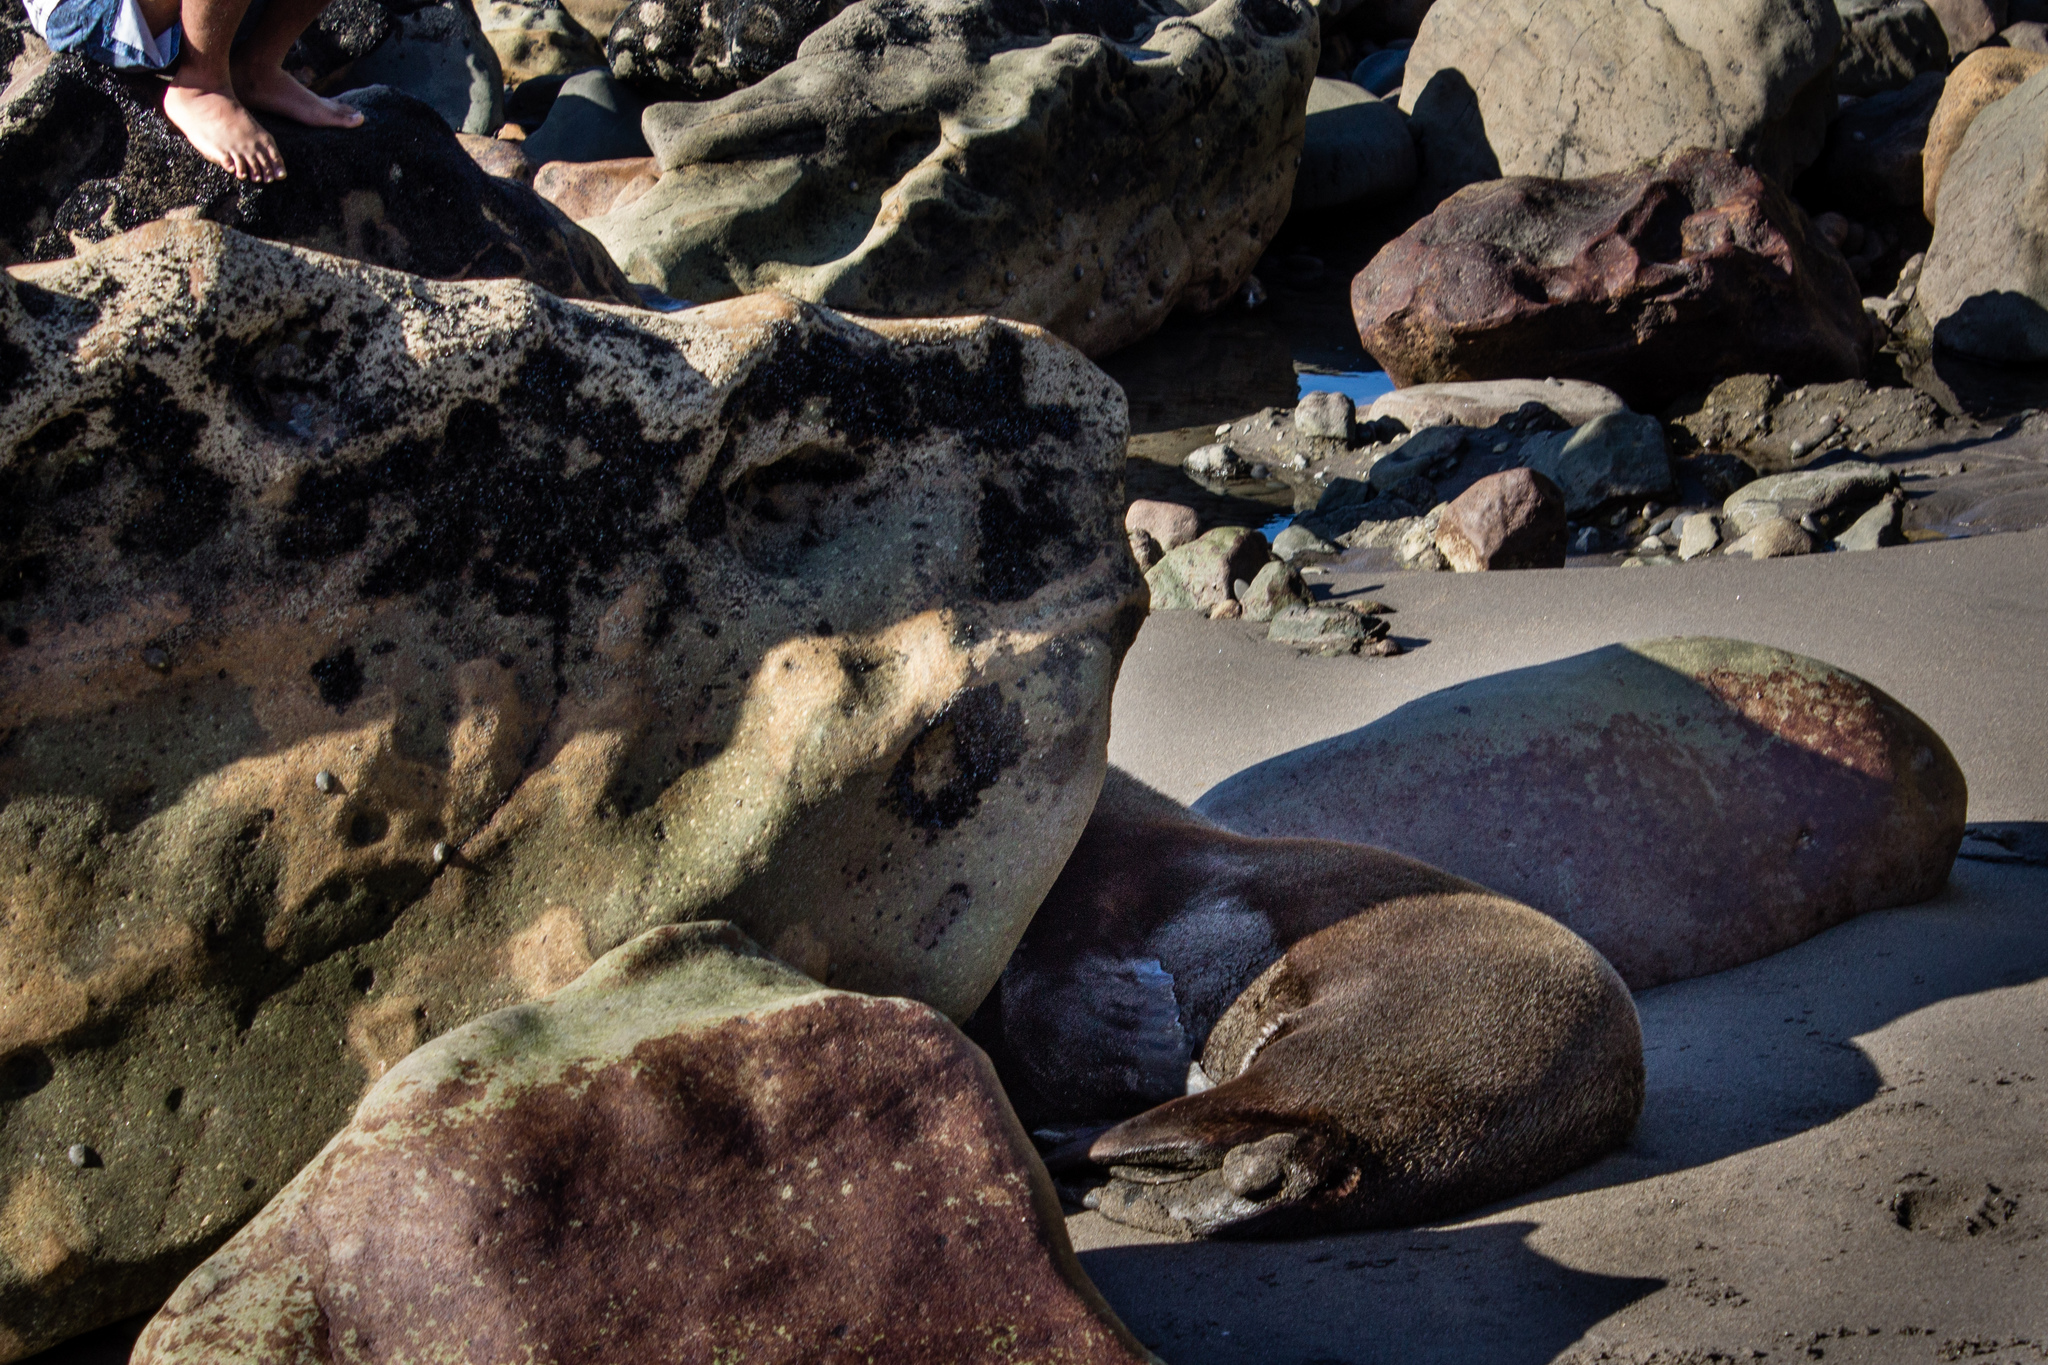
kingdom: Animalia
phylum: Chordata
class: Mammalia
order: Carnivora
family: Otariidae
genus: Arctocephalus
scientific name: Arctocephalus forsteri
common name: New zealand fur seal
